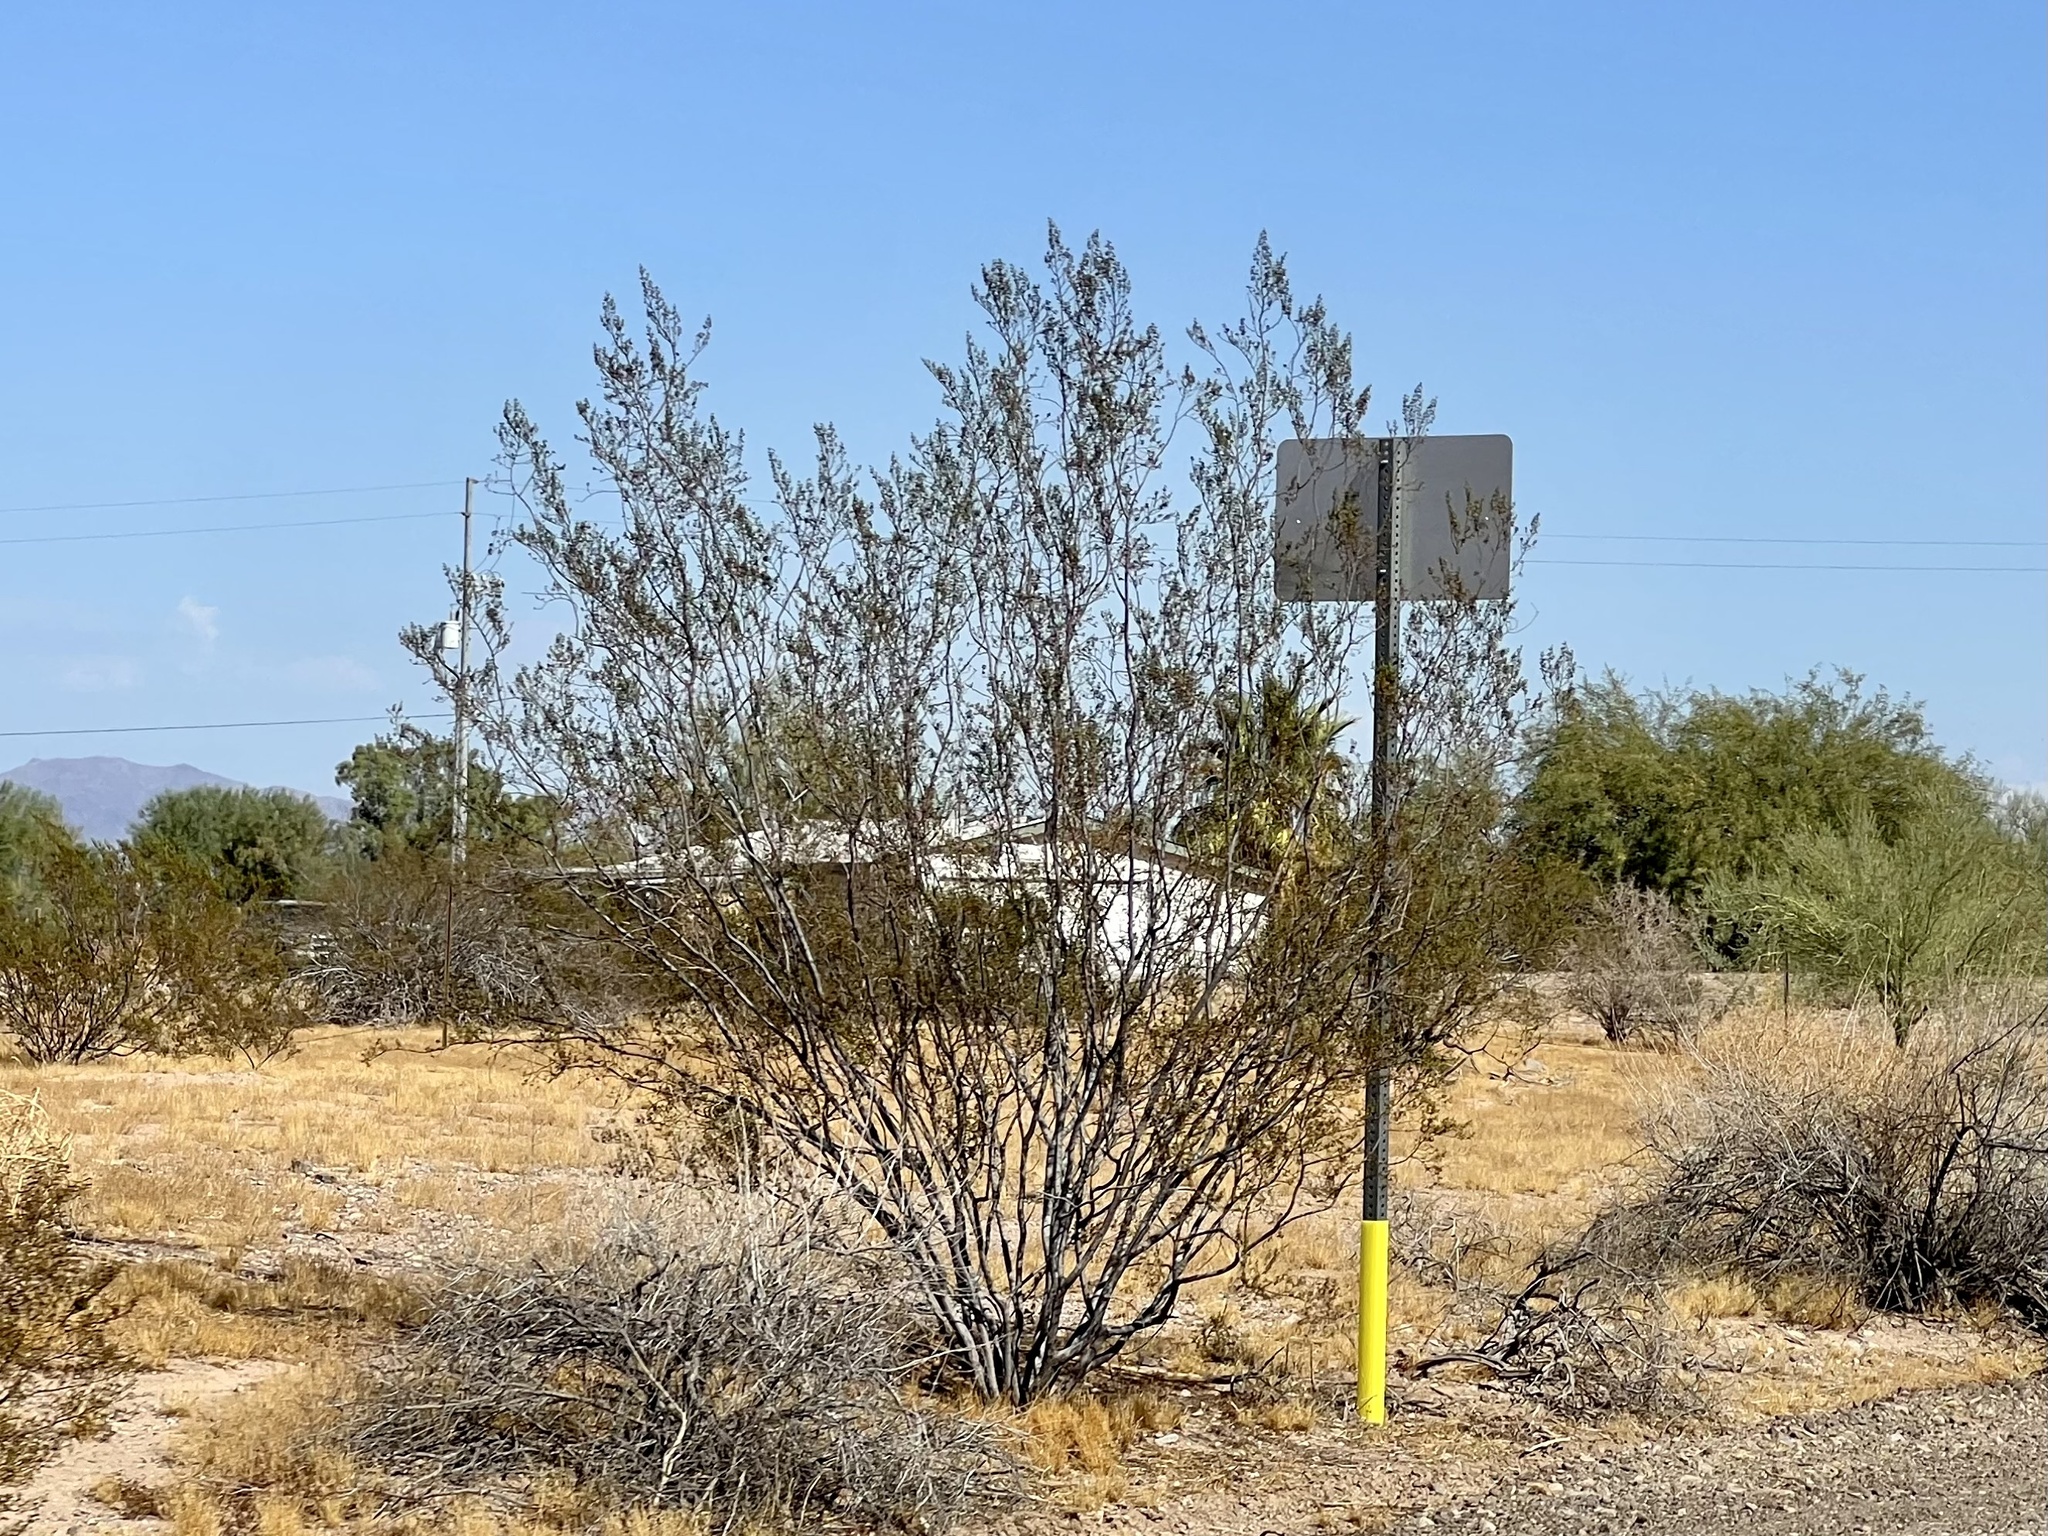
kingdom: Plantae
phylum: Tracheophyta
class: Magnoliopsida
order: Zygophyllales
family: Zygophyllaceae
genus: Larrea
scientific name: Larrea tridentata
